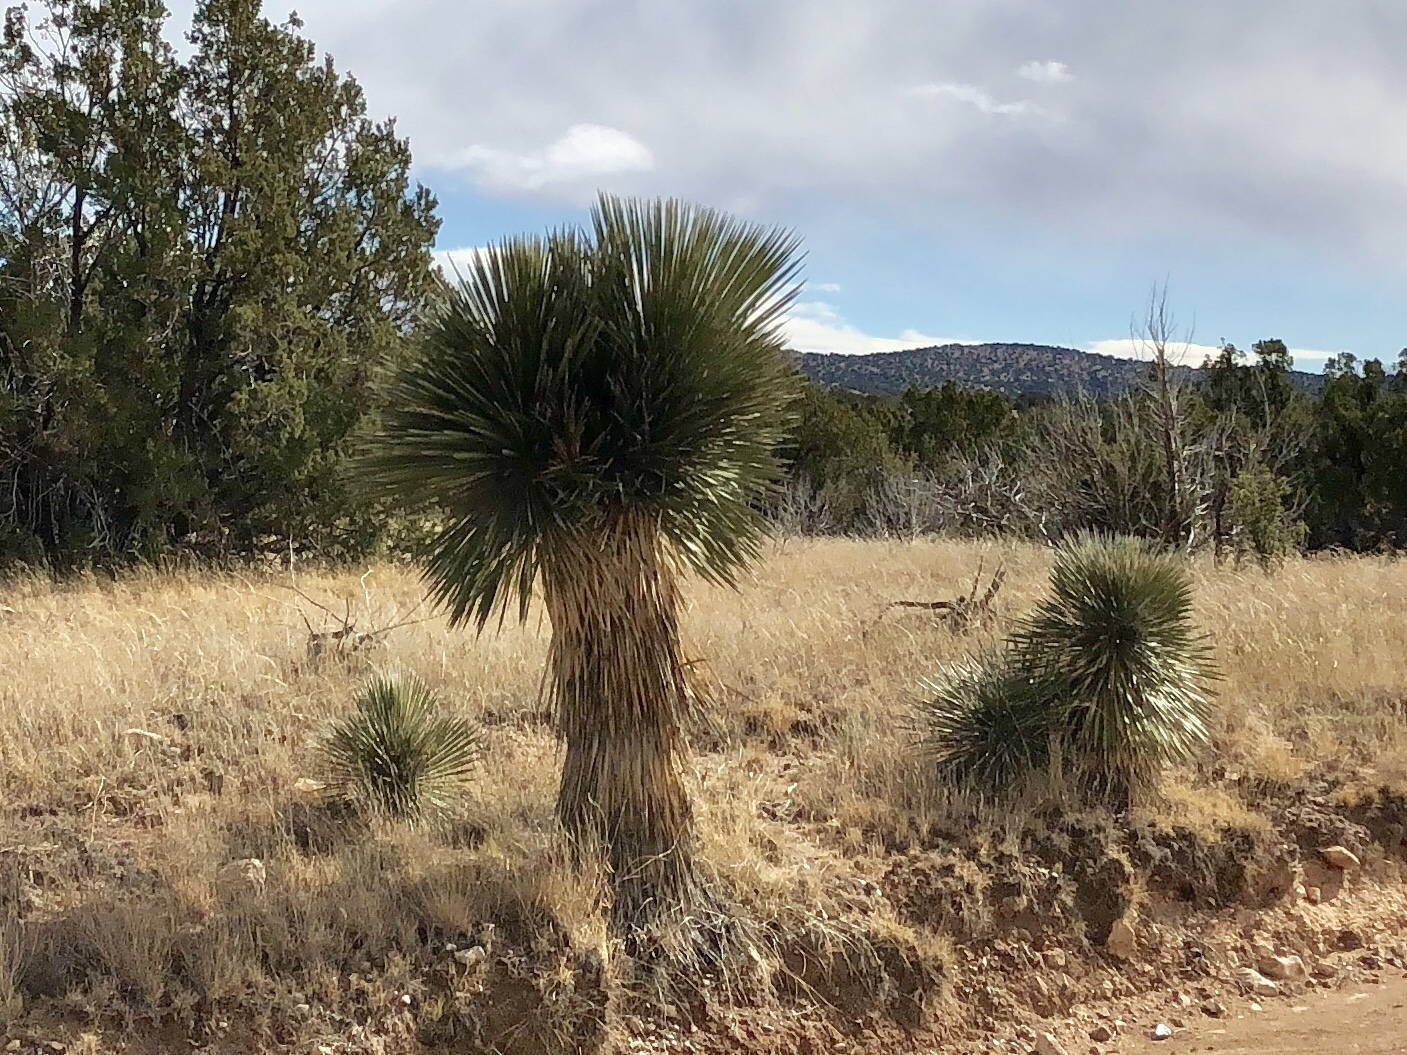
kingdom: Plantae
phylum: Tracheophyta
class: Liliopsida
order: Asparagales
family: Asparagaceae
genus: Yucca
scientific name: Yucca elata
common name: Palmella
